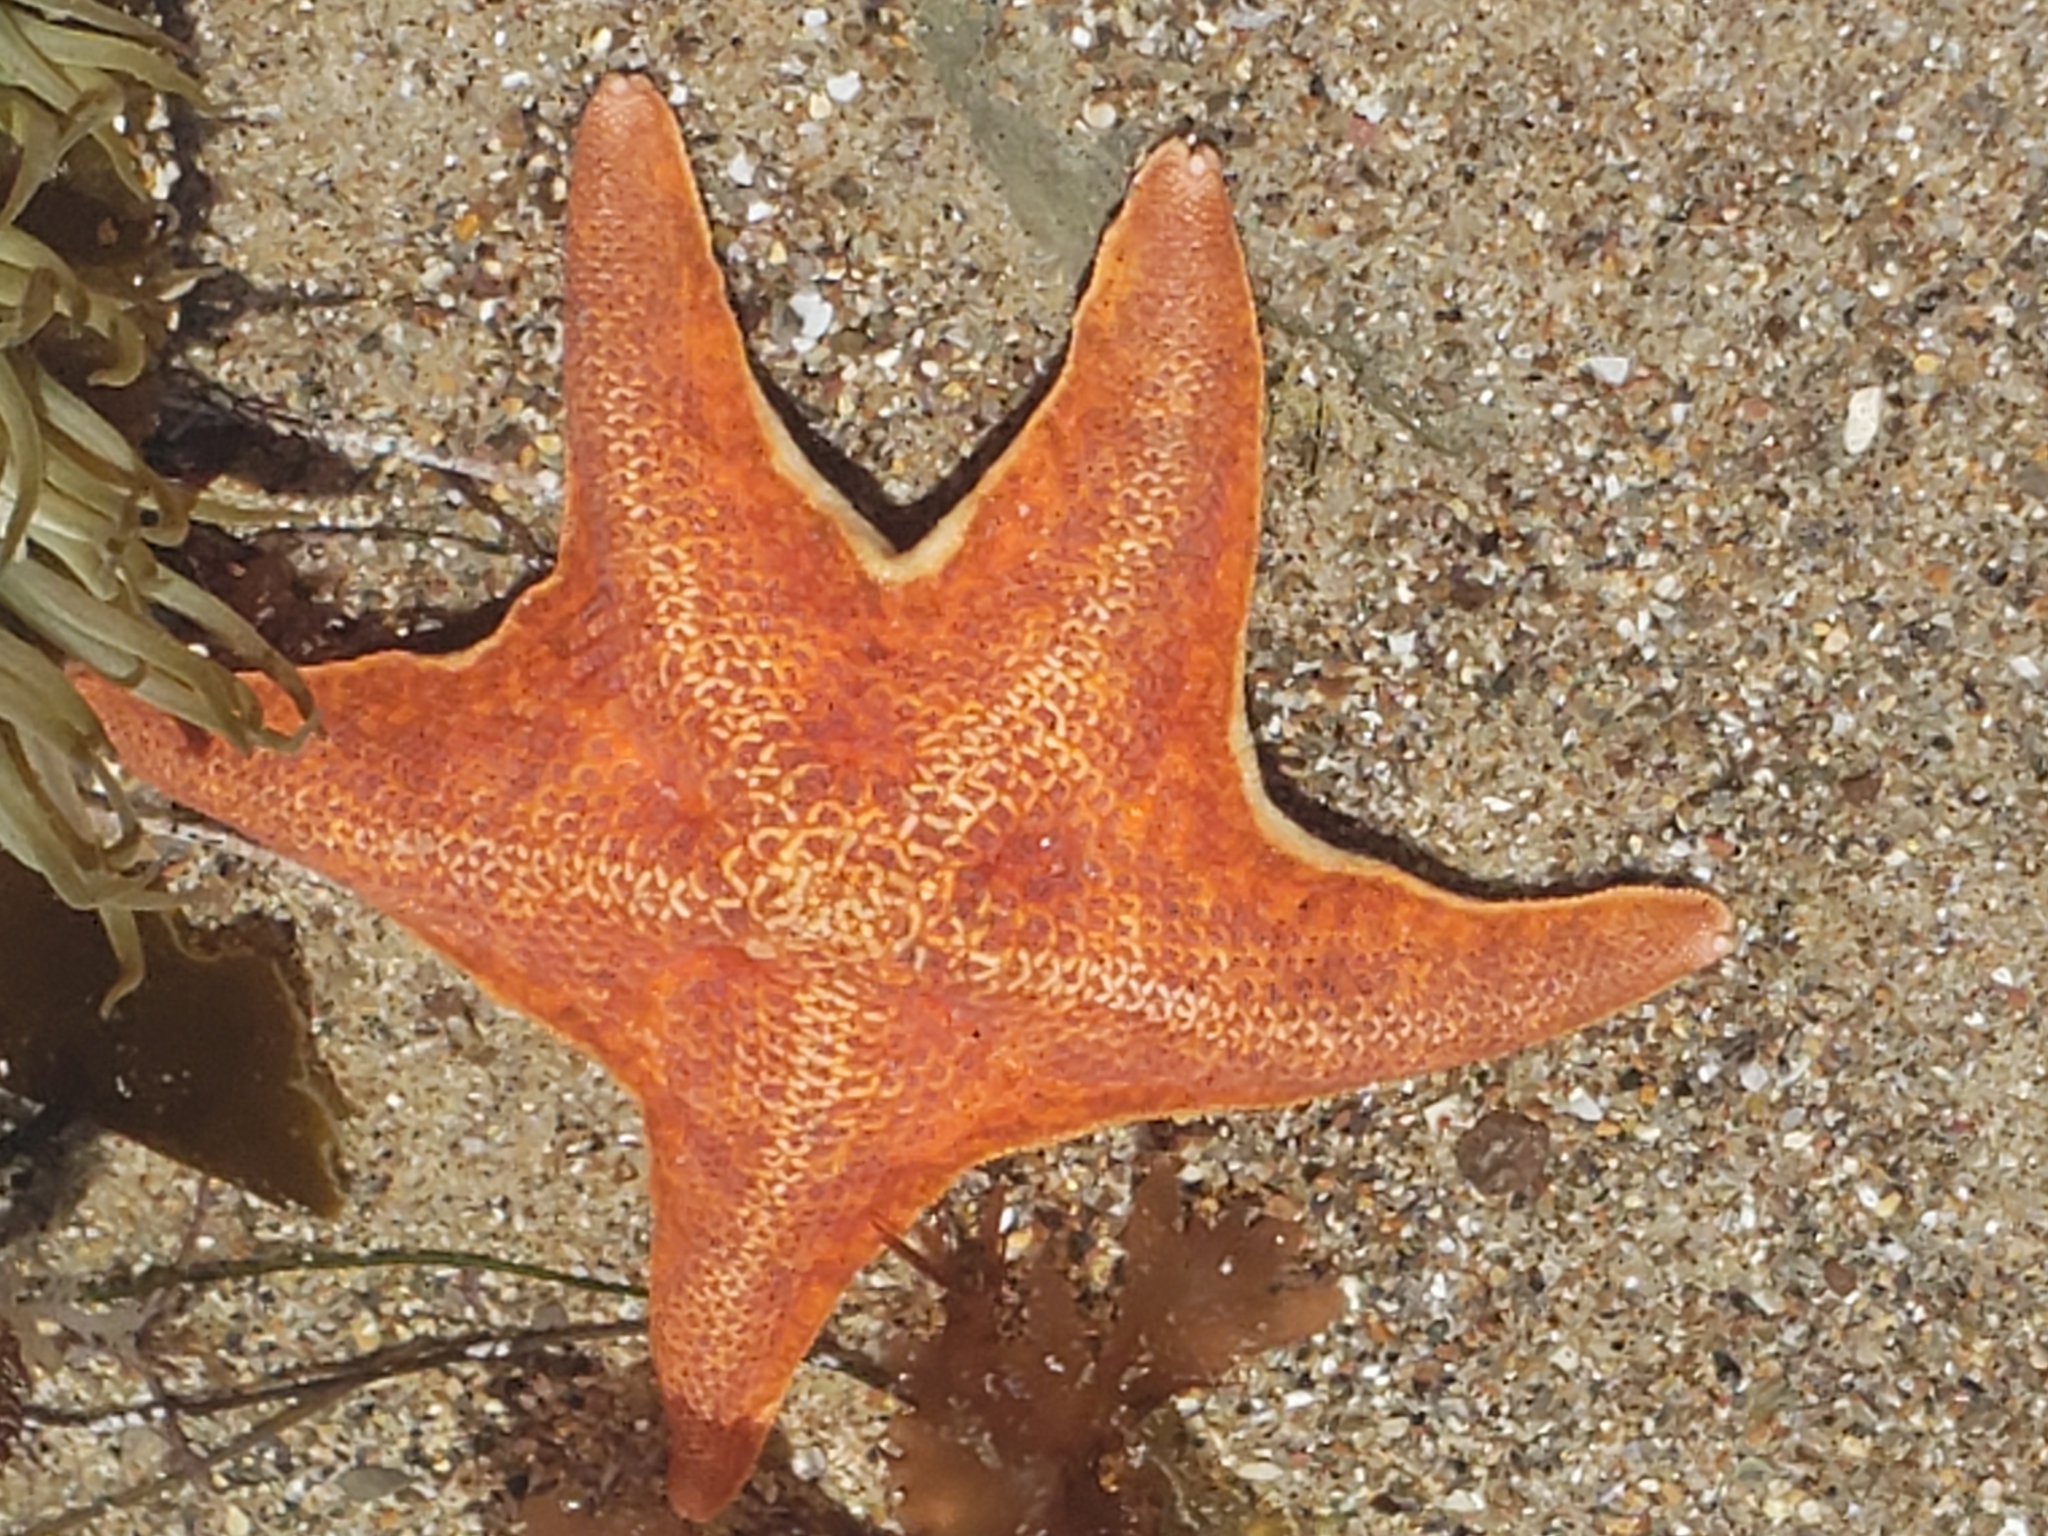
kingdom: Animalia
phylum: Echinodermata
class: Asteroidea
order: Valvatida
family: Asterinidae
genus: Patiria
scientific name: Patiria miniata
